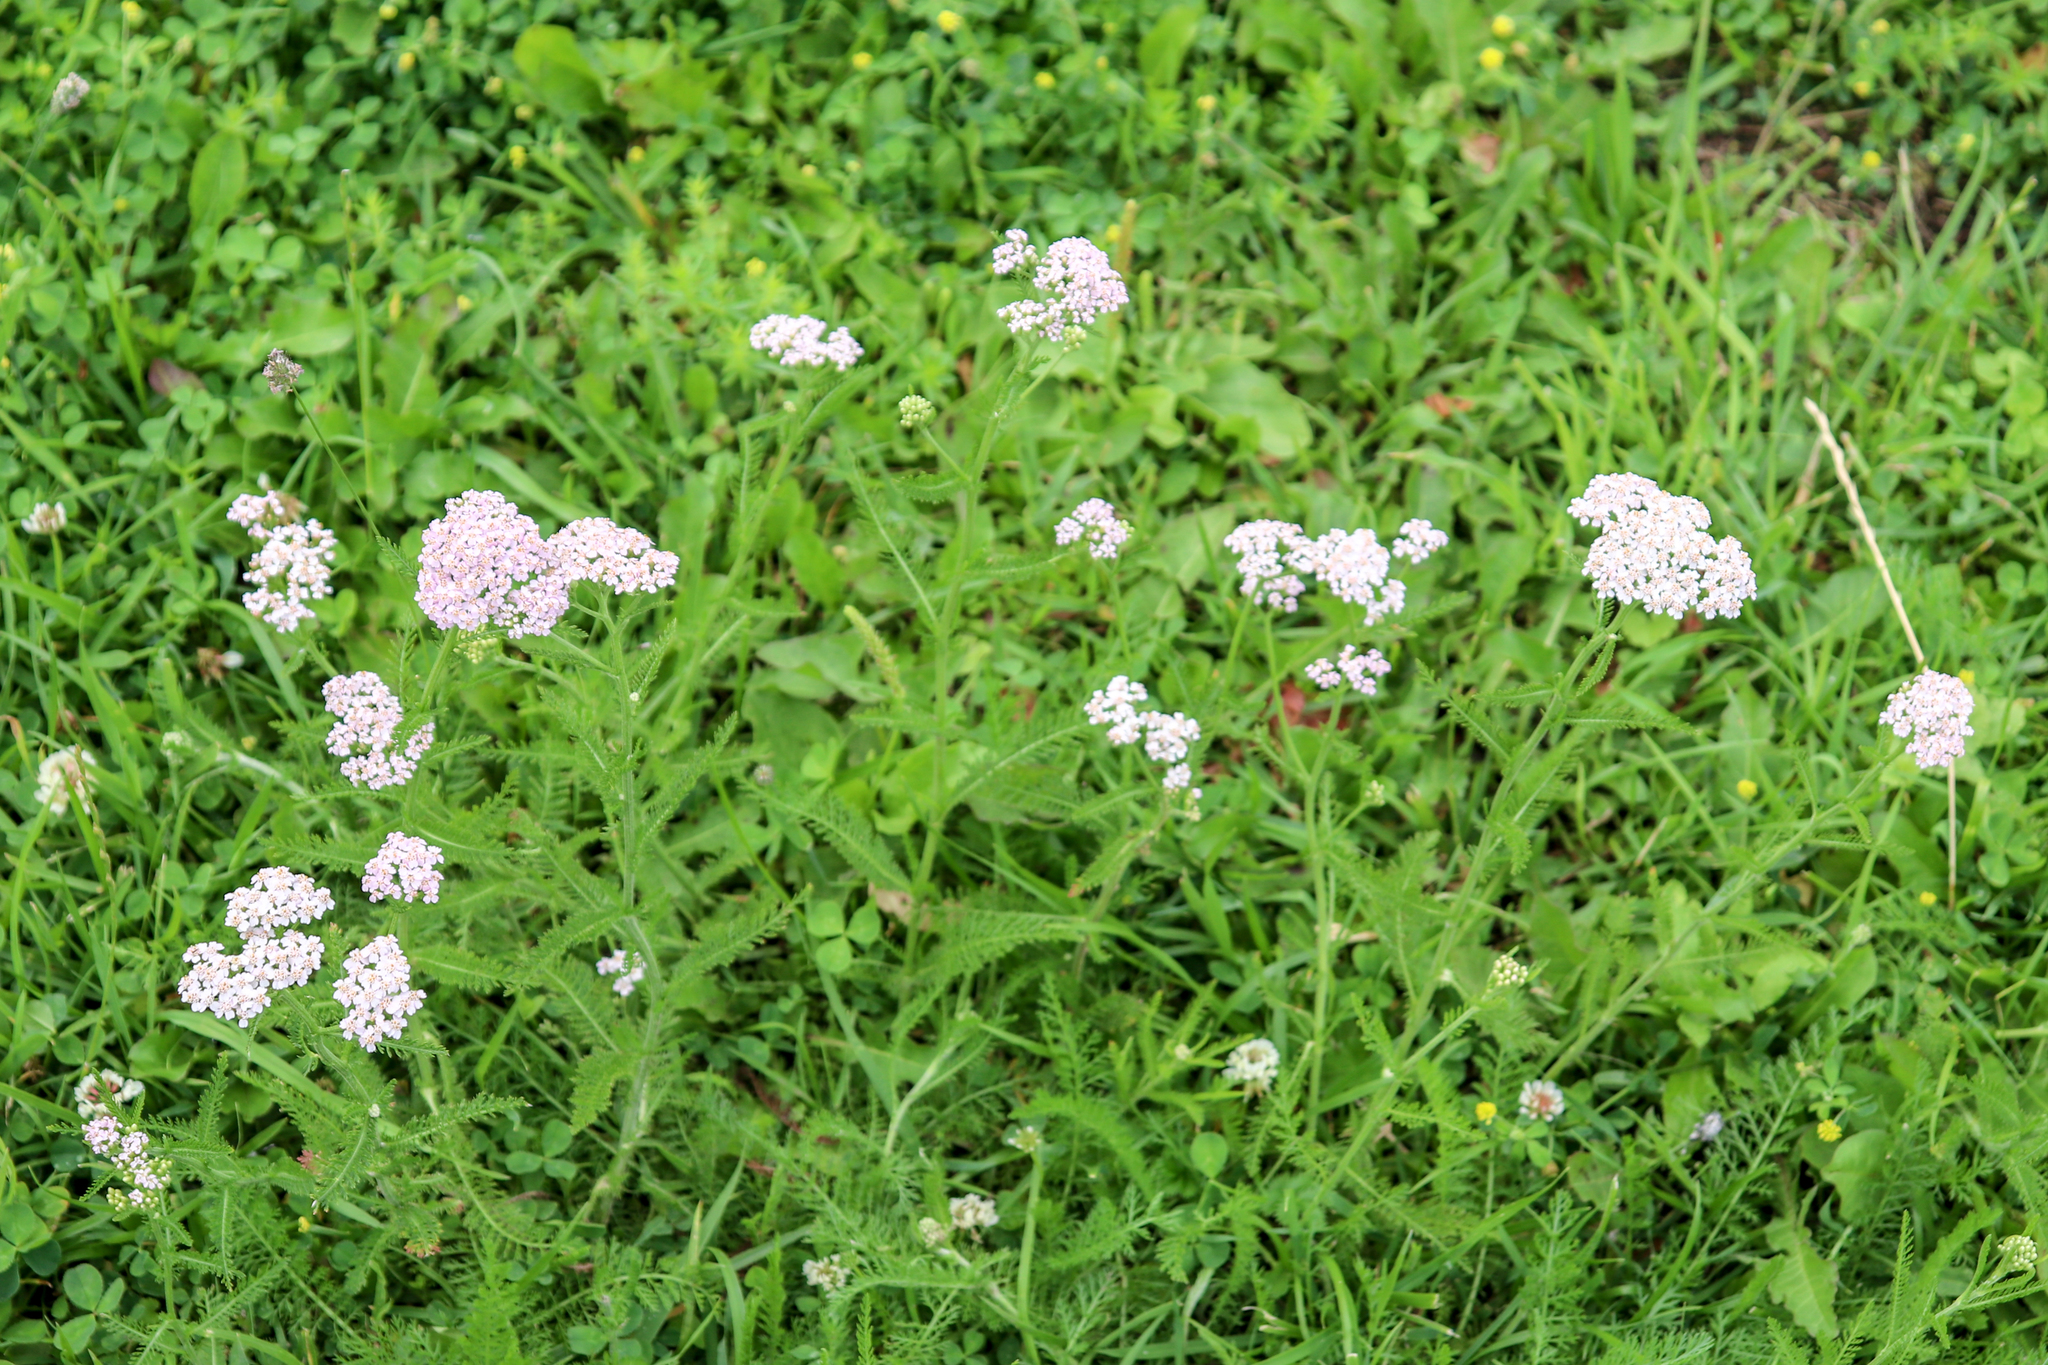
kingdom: Plantae
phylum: Tracheophyta
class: Magnoliopsida
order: Asterales
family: Asteraceae
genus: Achillea
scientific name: Achillea millefolium
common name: Yarrow
